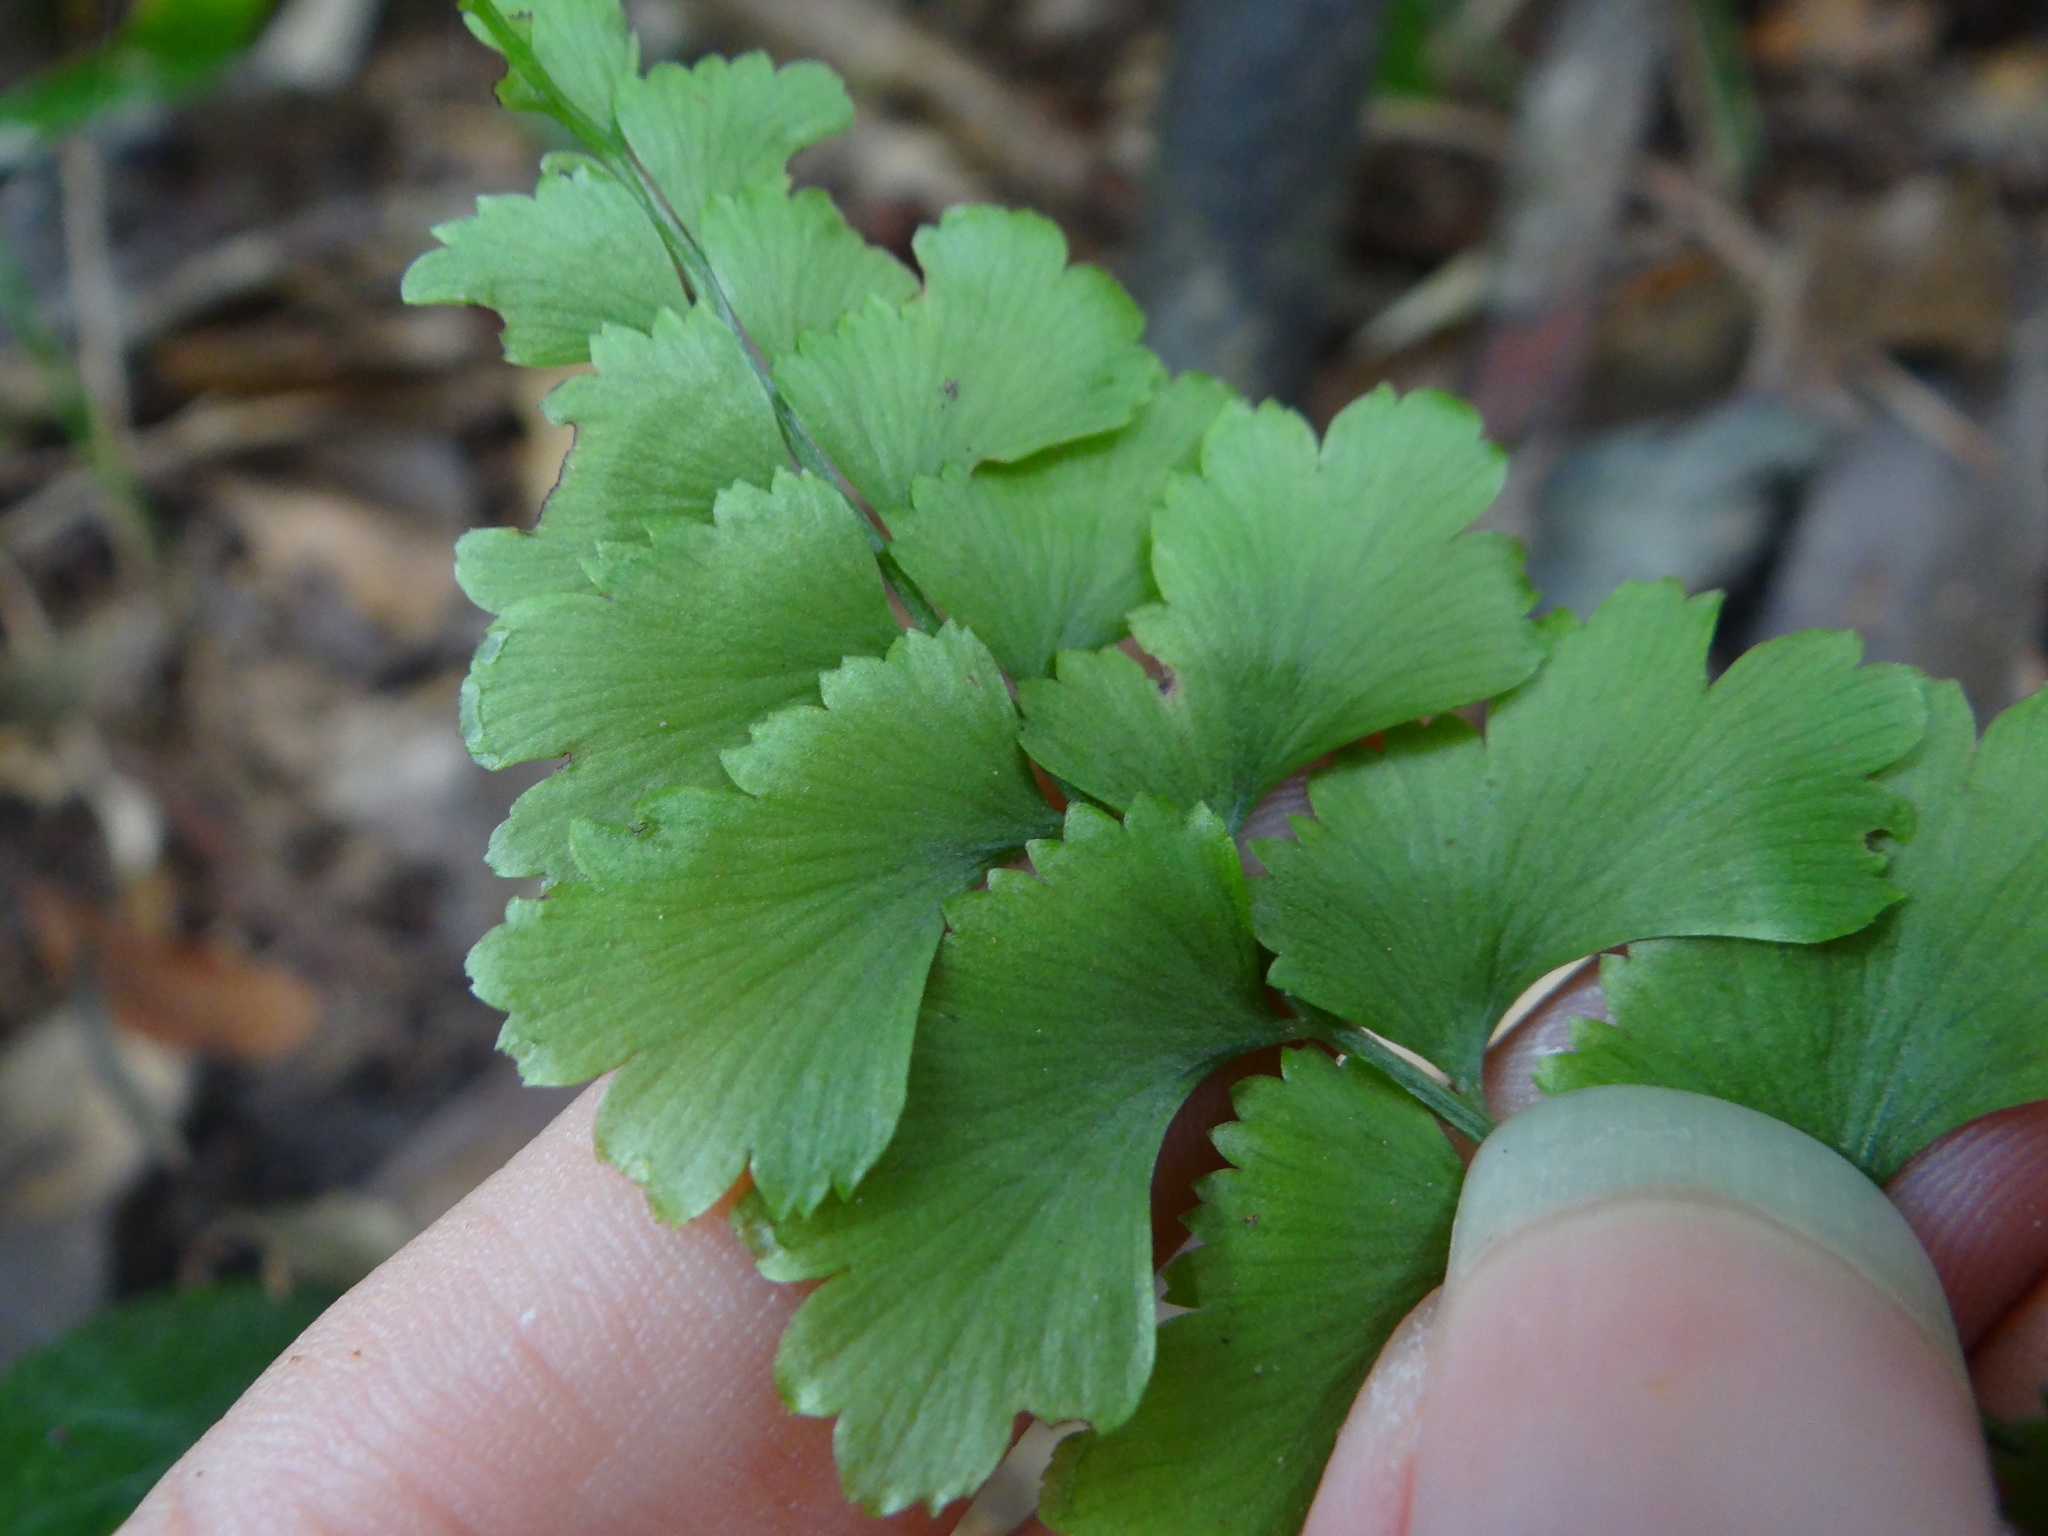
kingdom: Plantae
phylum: Tracheophyta
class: Polypodiopsida
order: Polypodiales
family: Lindsaeaceae
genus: Lindsaea
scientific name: Lindsaea chienii
